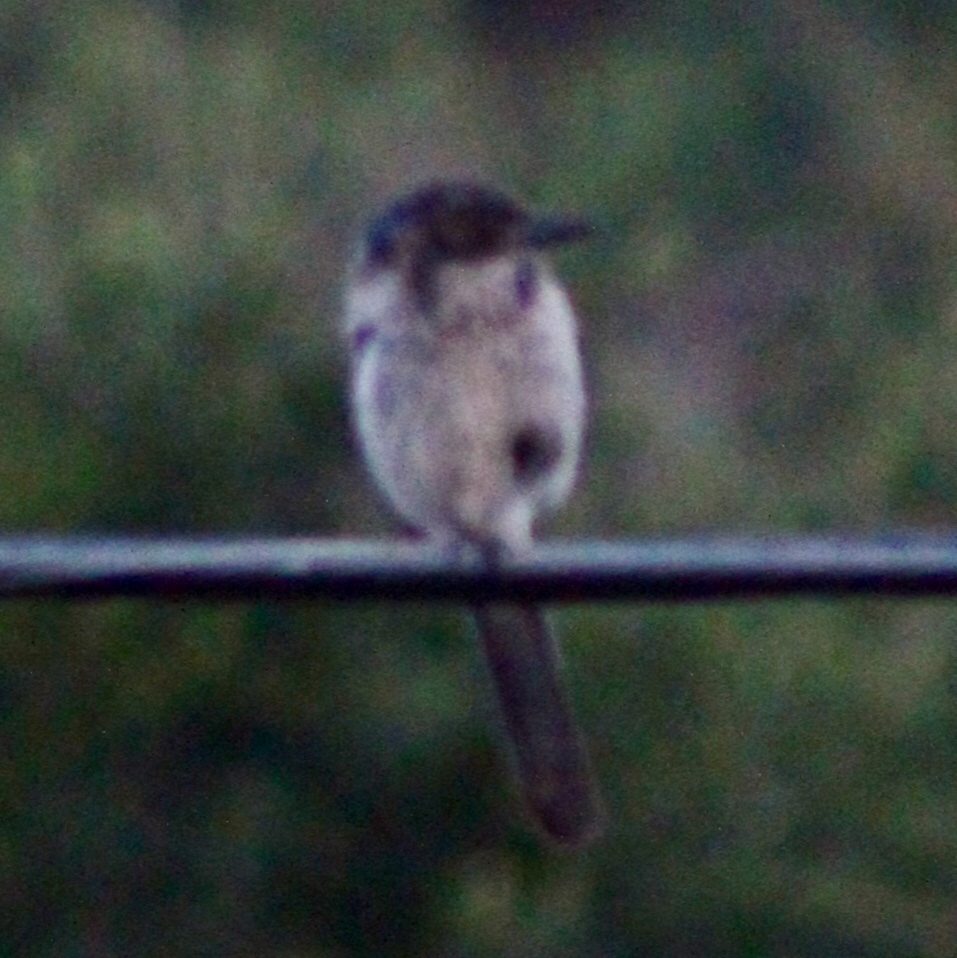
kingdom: Animalia
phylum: Chordata
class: Aves
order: Passeriformes
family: Corvidae
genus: Aphelocoma
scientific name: Aphelocoma californica
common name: California scrub-jay
